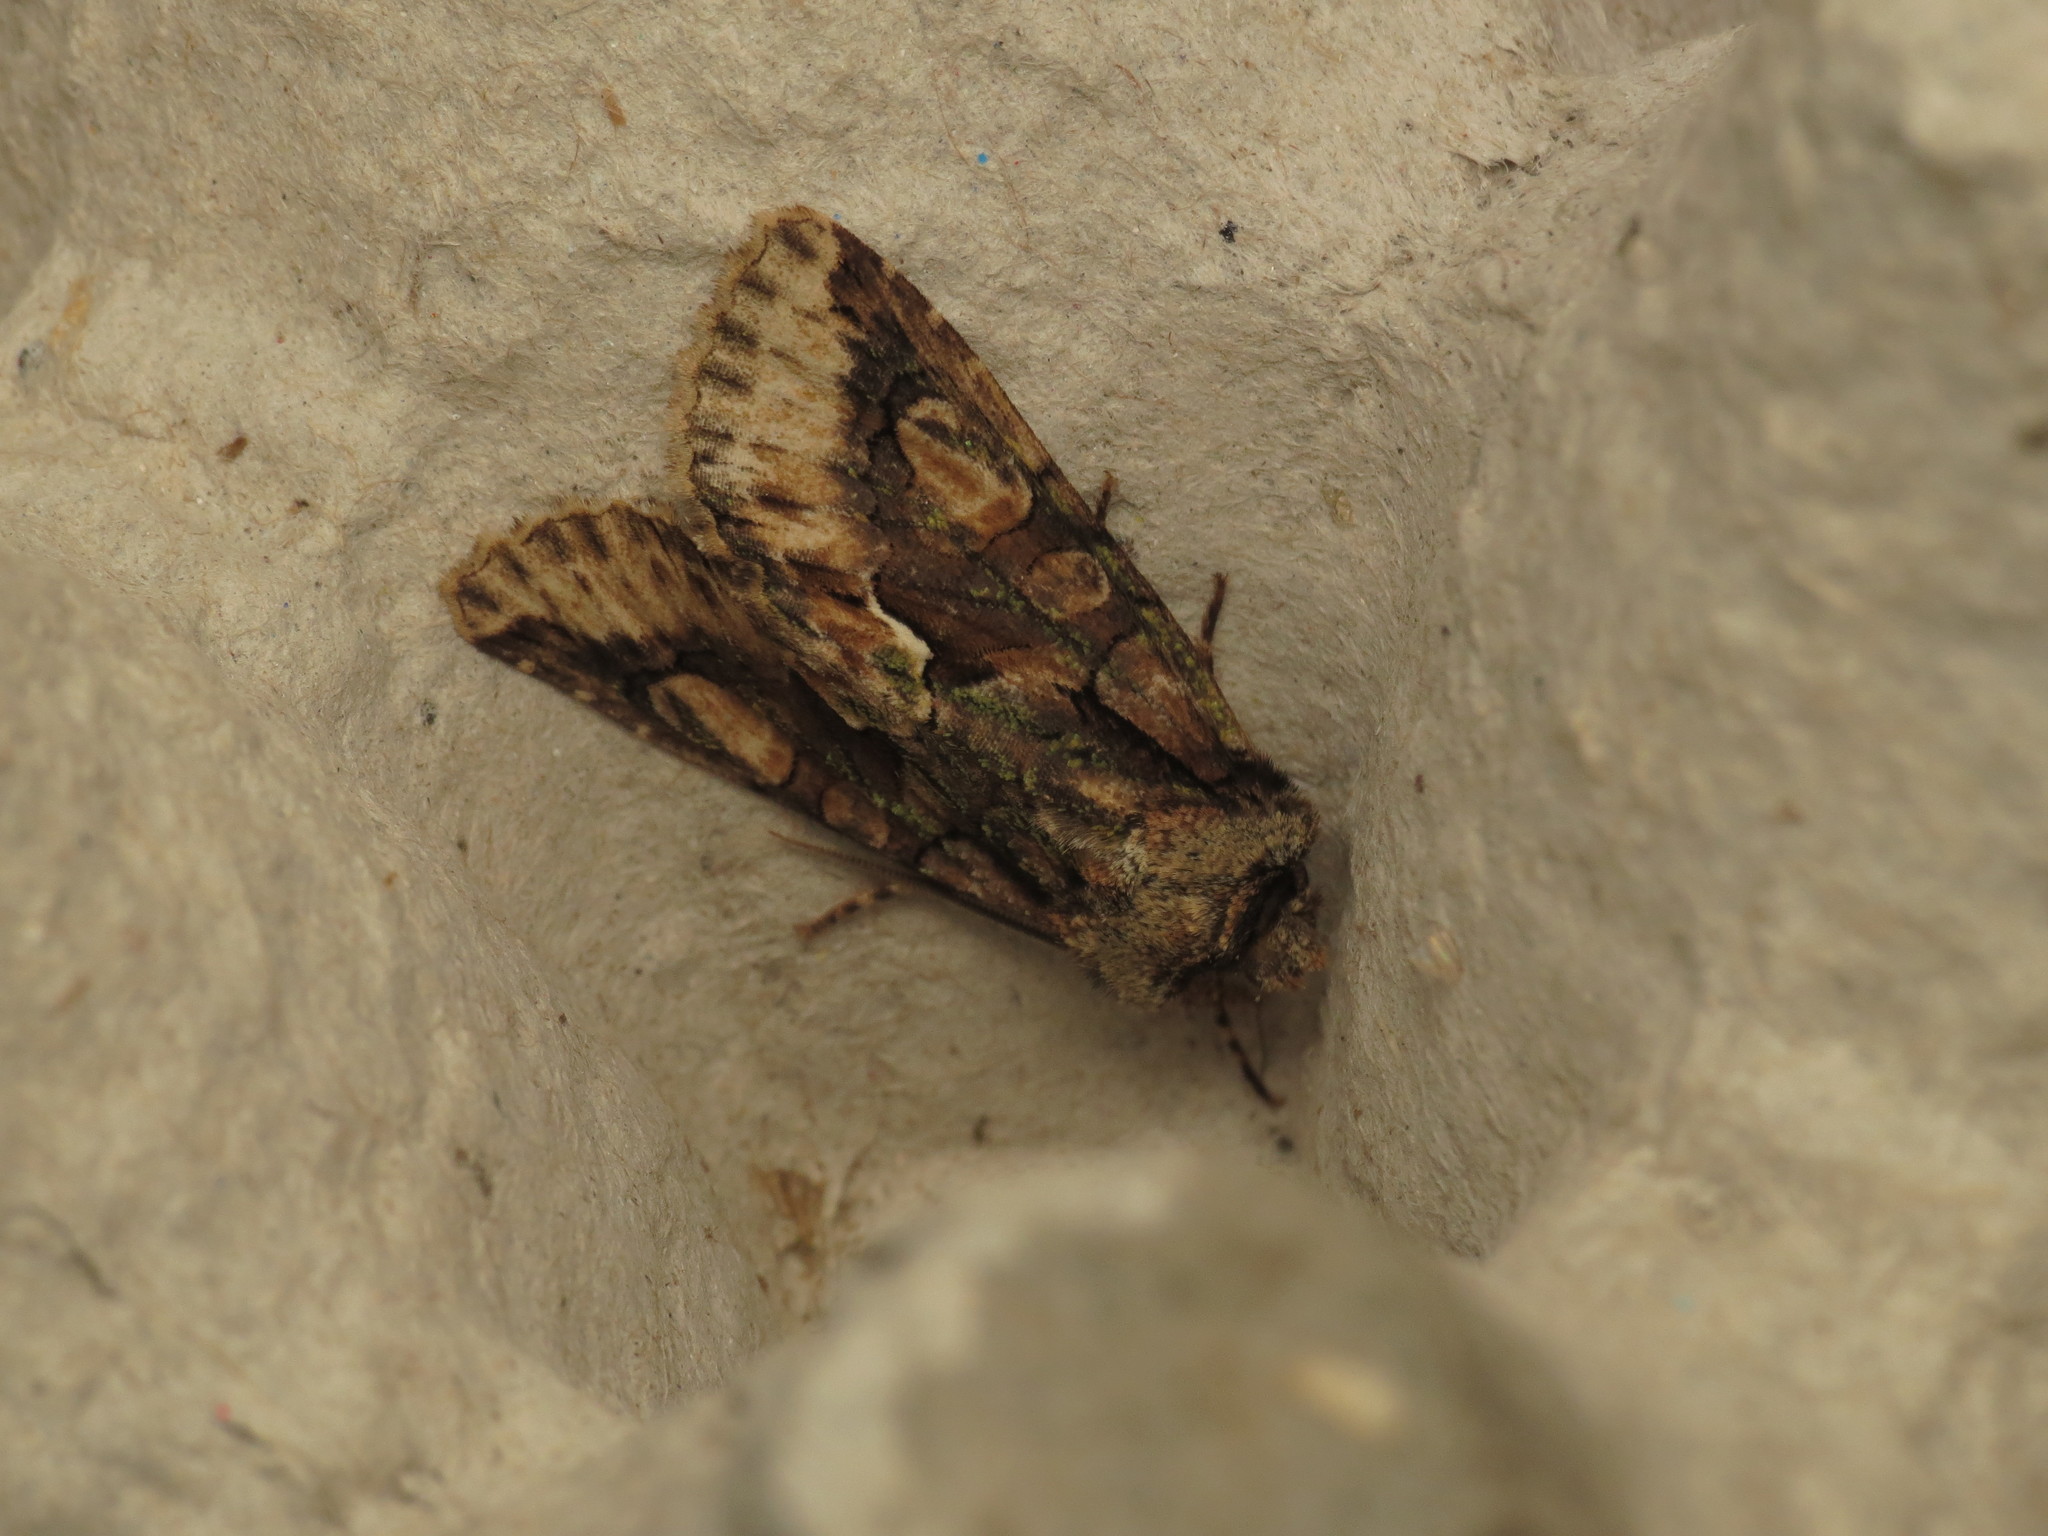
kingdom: Animalia
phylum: Arthropoda
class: Insecta
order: Lepidoptera
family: Noctuidae
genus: Allophyes
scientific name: Allophyes oxyacanthae
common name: Green-brindled crescent
